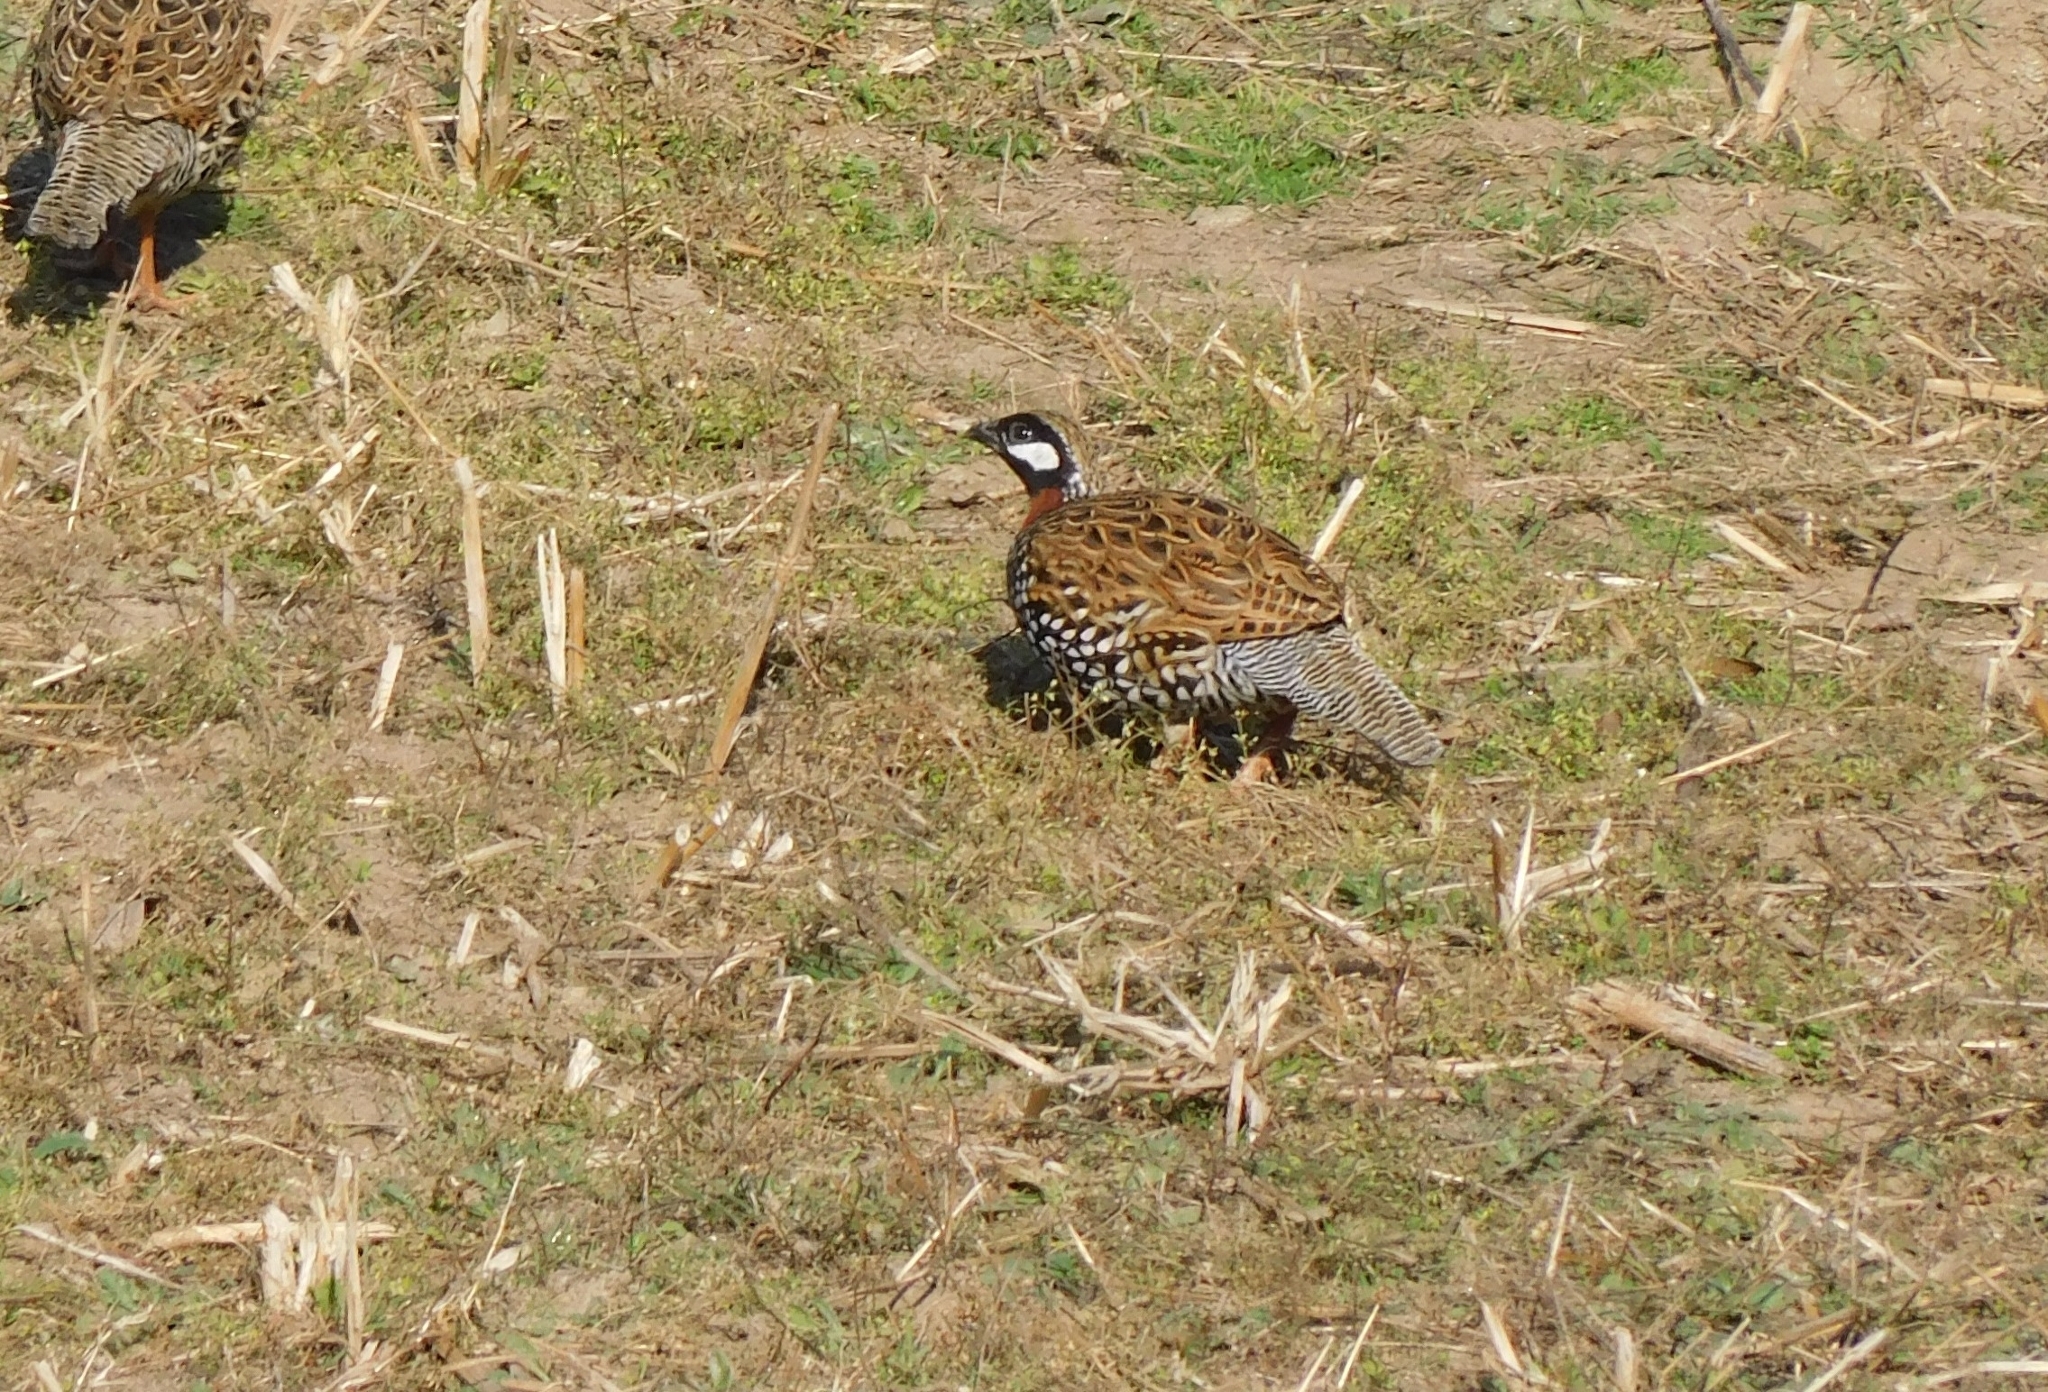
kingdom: Animalia
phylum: Chordata
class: Aves
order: Galliformes
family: Phasianidae
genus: Francolinus
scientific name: Francolinus francolinus
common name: Black francolin
